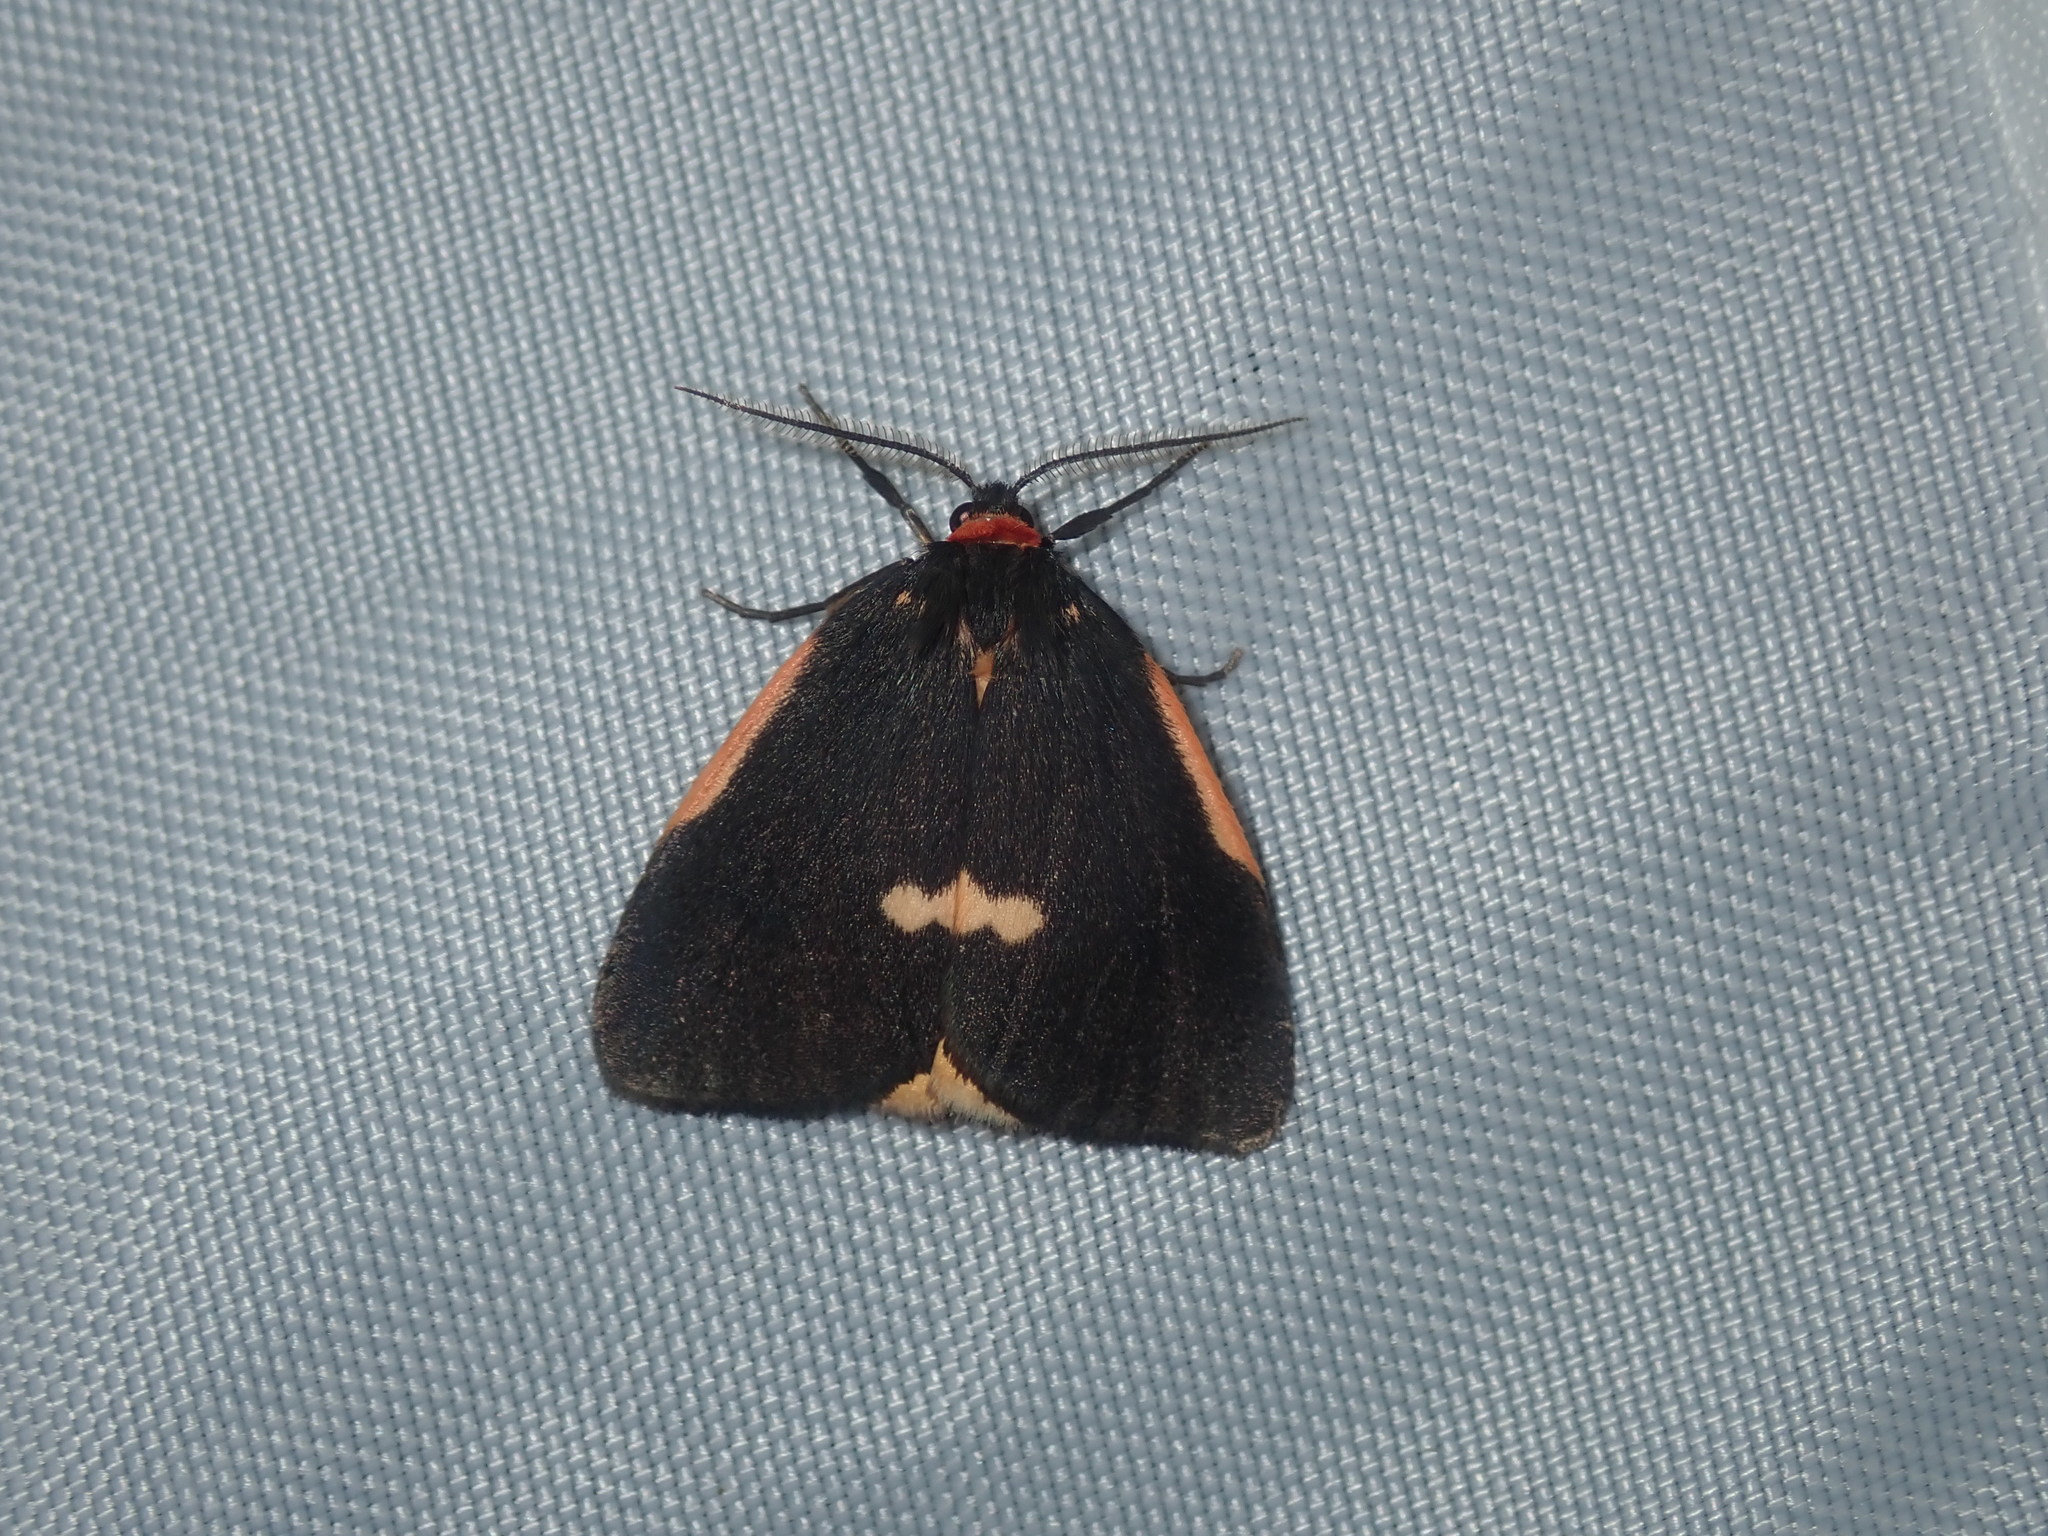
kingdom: Animalia
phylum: Arthropoda
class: Insecta
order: Lepidoptera
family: Erebidae
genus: Castulo
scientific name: Castulo doubledayi
